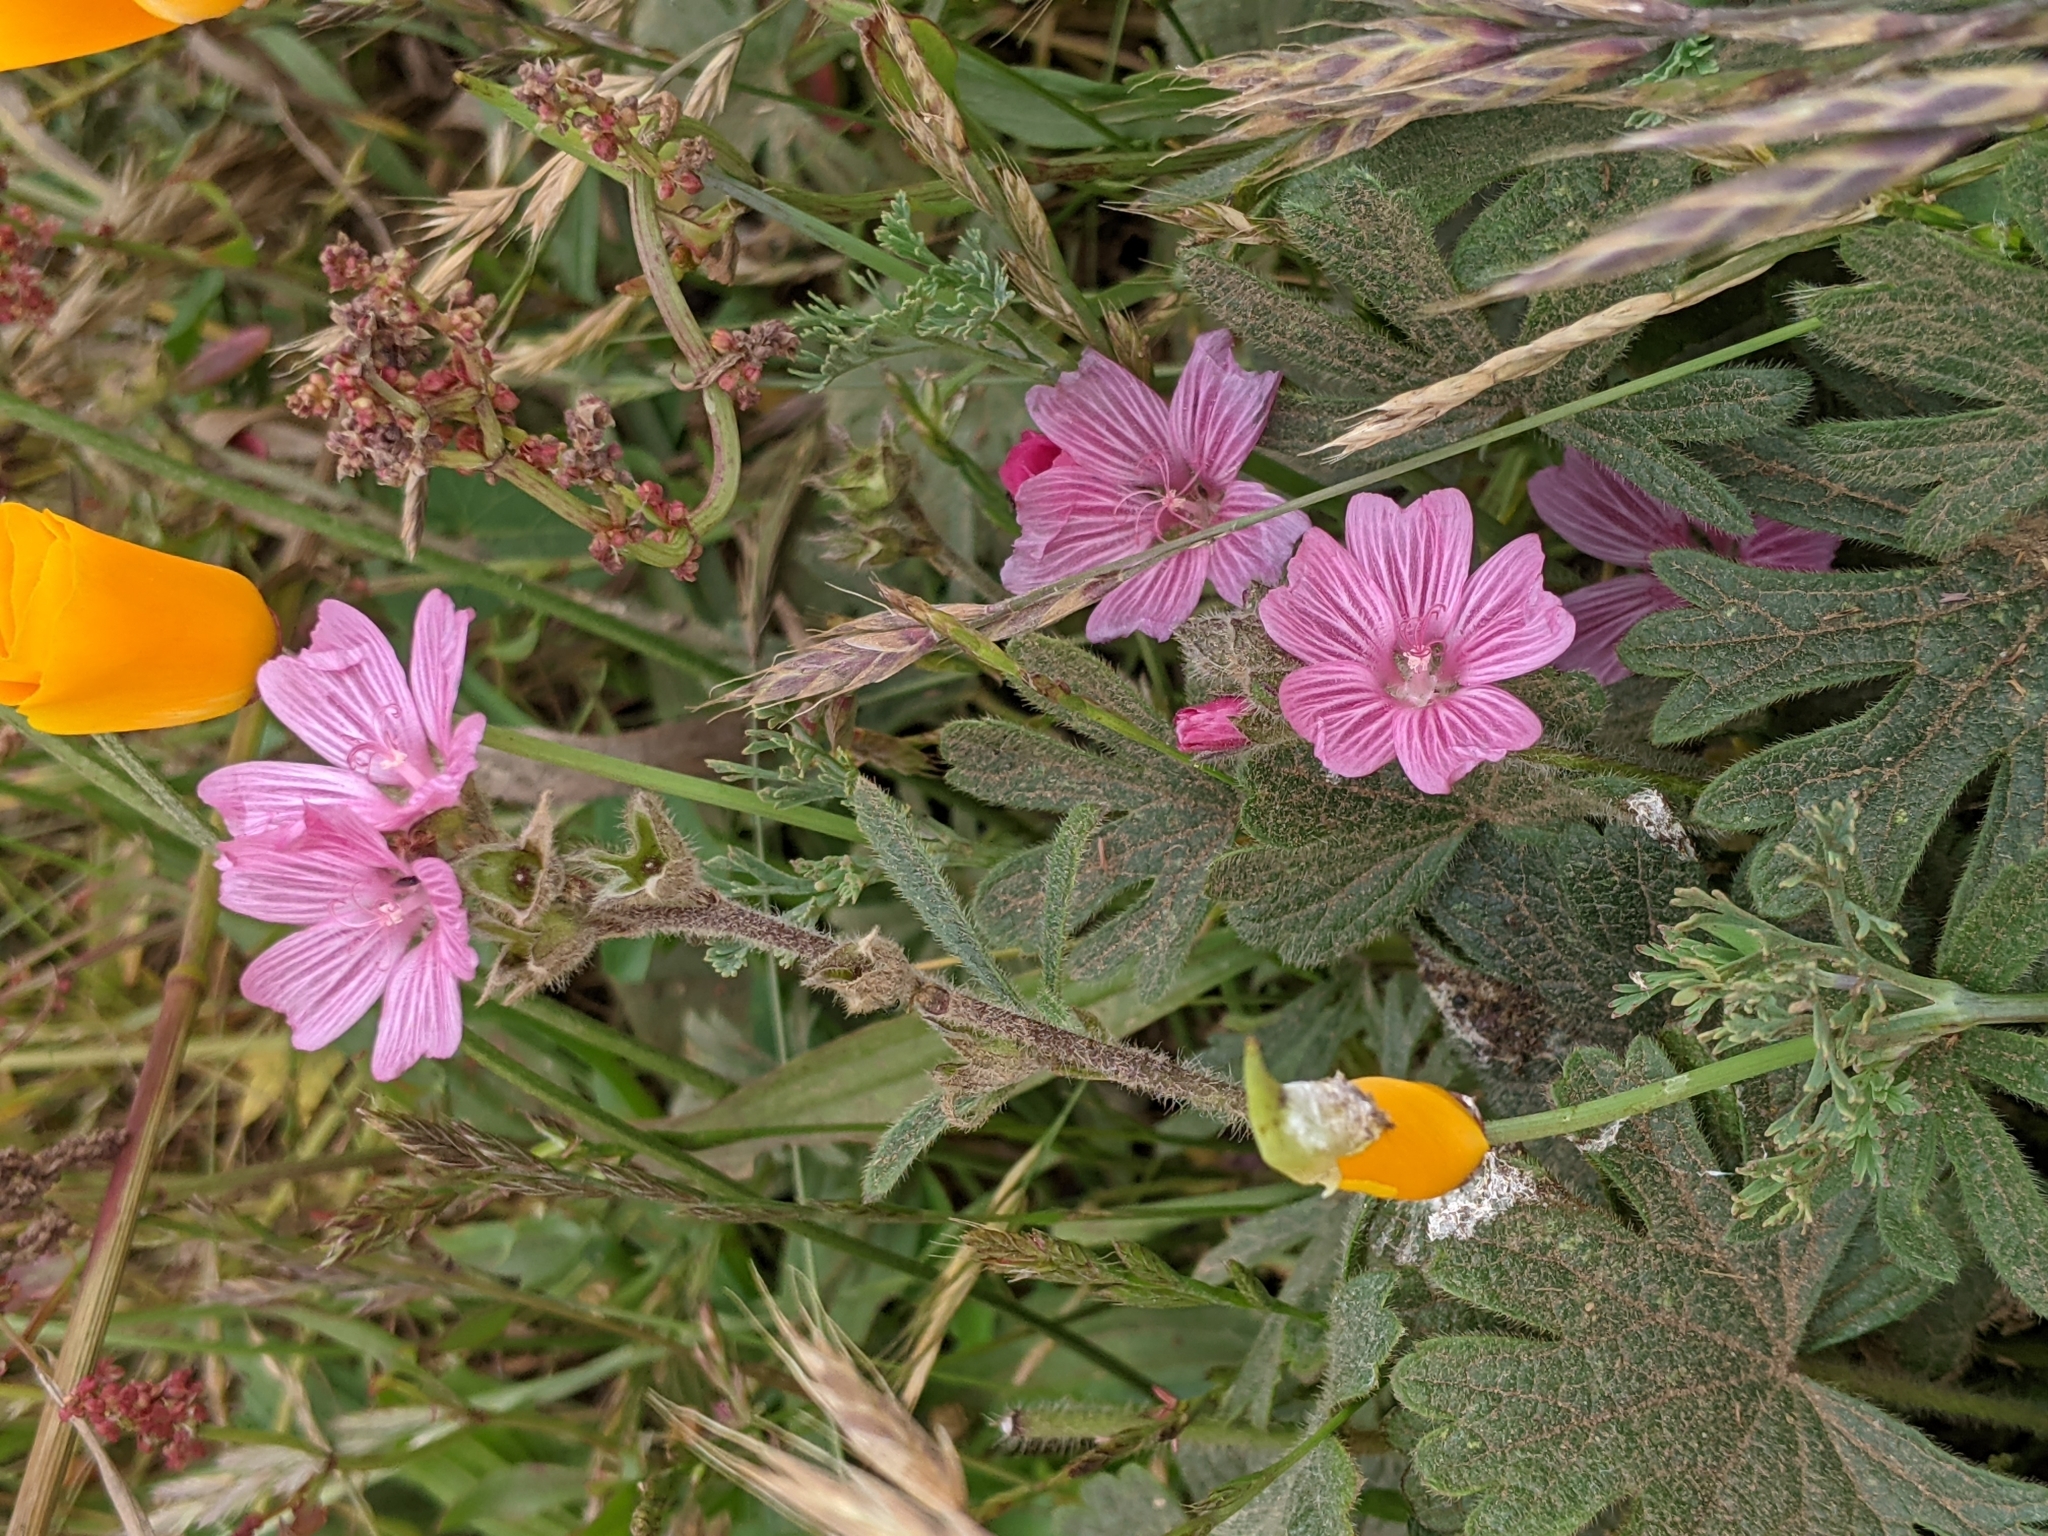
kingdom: Plantae
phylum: Tracheophyta
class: Magnoliopsida
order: Malvales
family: Malvaceae
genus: Sidalcea
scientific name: Sidalcea malviflora
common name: Greek mallow
